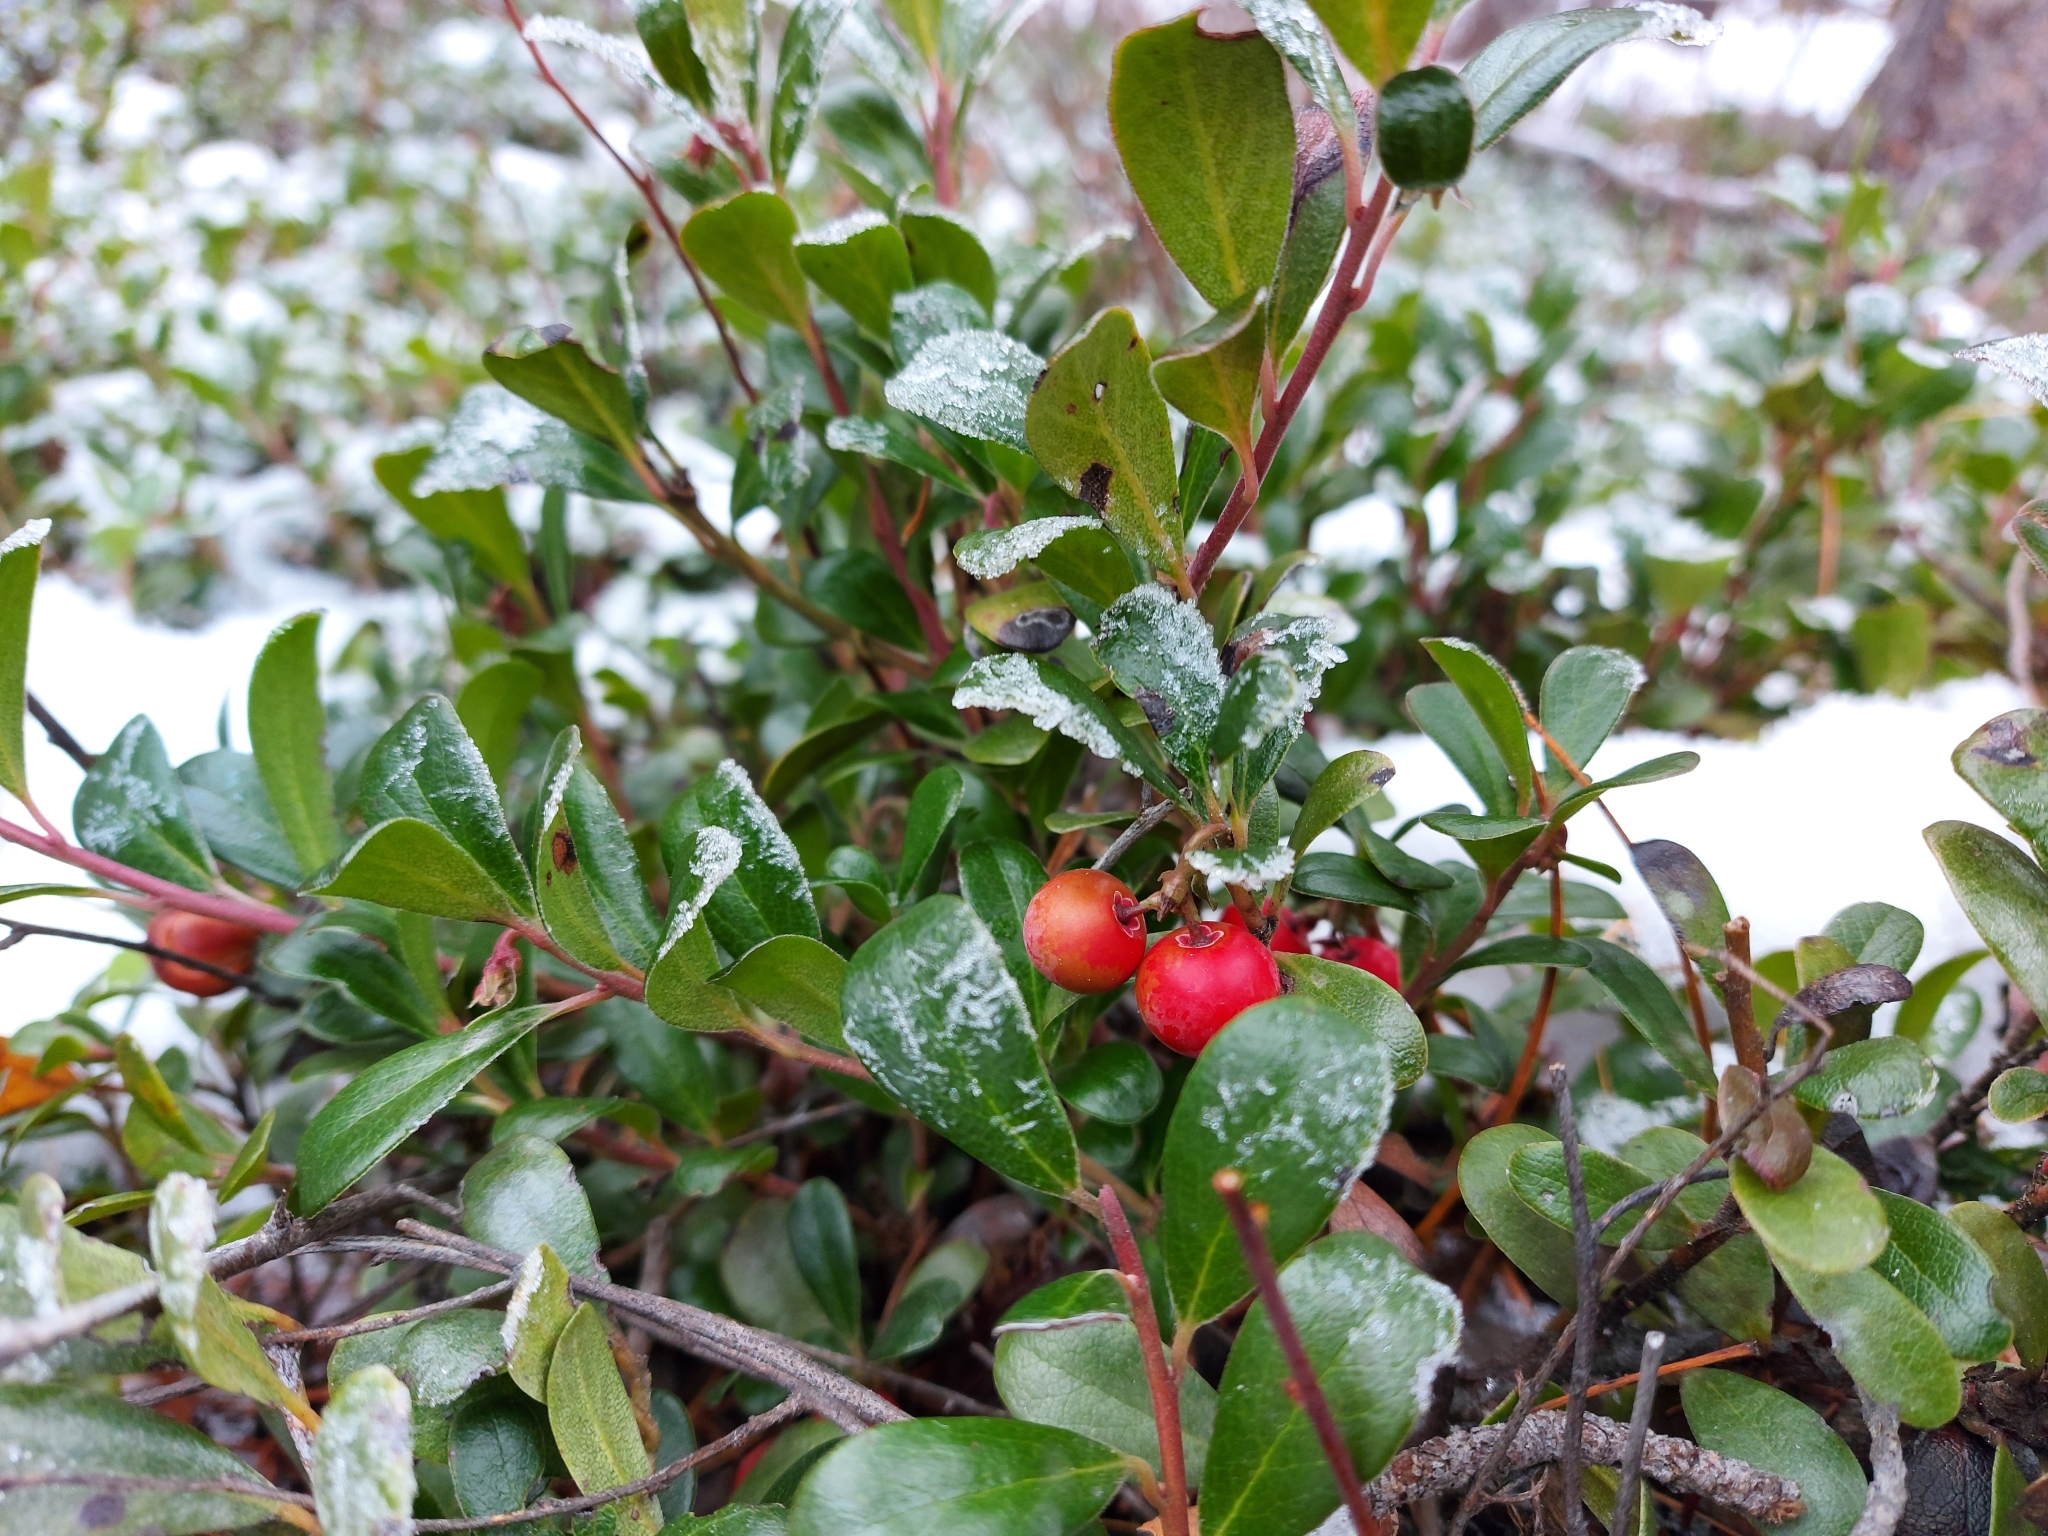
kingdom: Plantae
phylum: Tracheophyta
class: Magnoliopsida
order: Ericales
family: Ericaceae
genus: Arctostaphylos
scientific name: Arctostaphylos uva-ursi
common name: Bearberry
